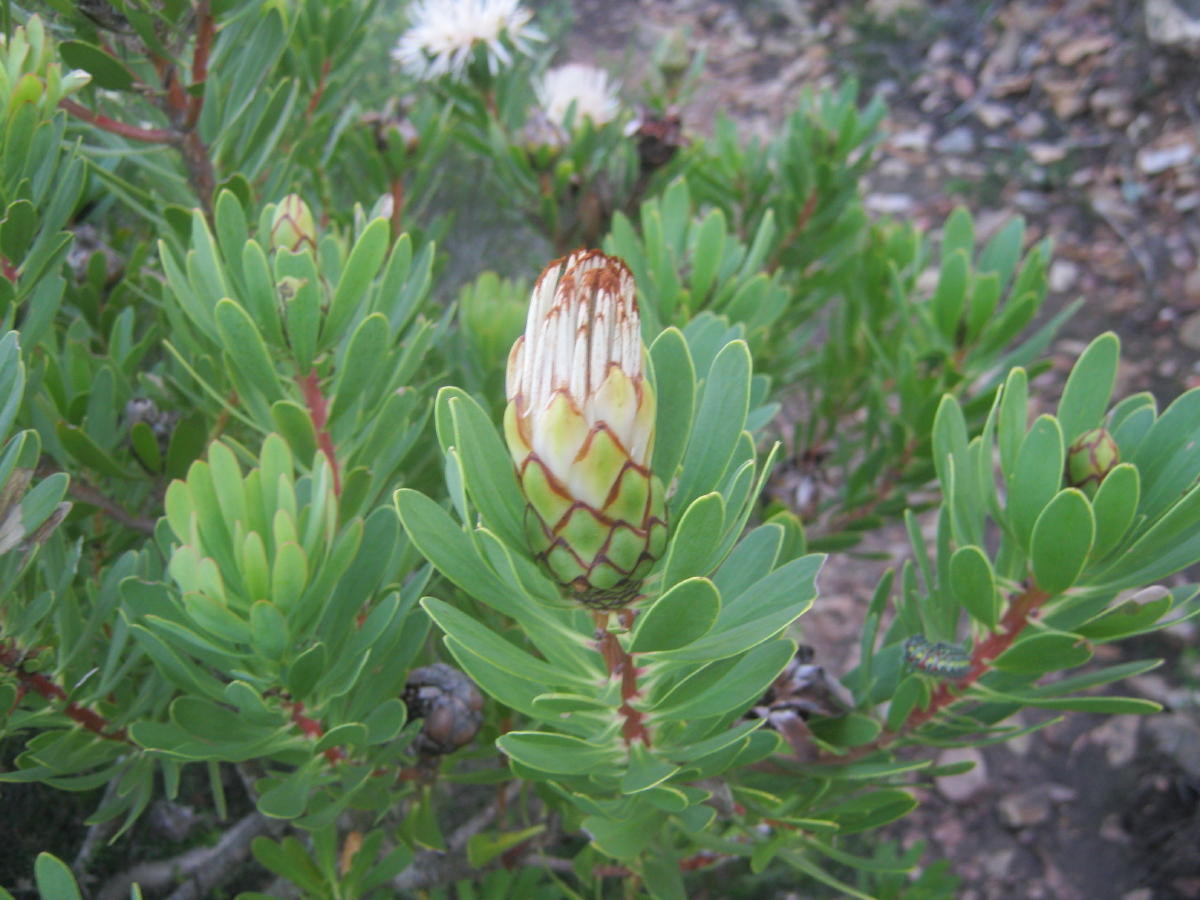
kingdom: Plantae
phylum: Tracheophyta
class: Magnoliopsida
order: Proteales
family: Proteaceae
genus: Protea
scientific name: Protea lanceolata
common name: Lance-leaved protea
